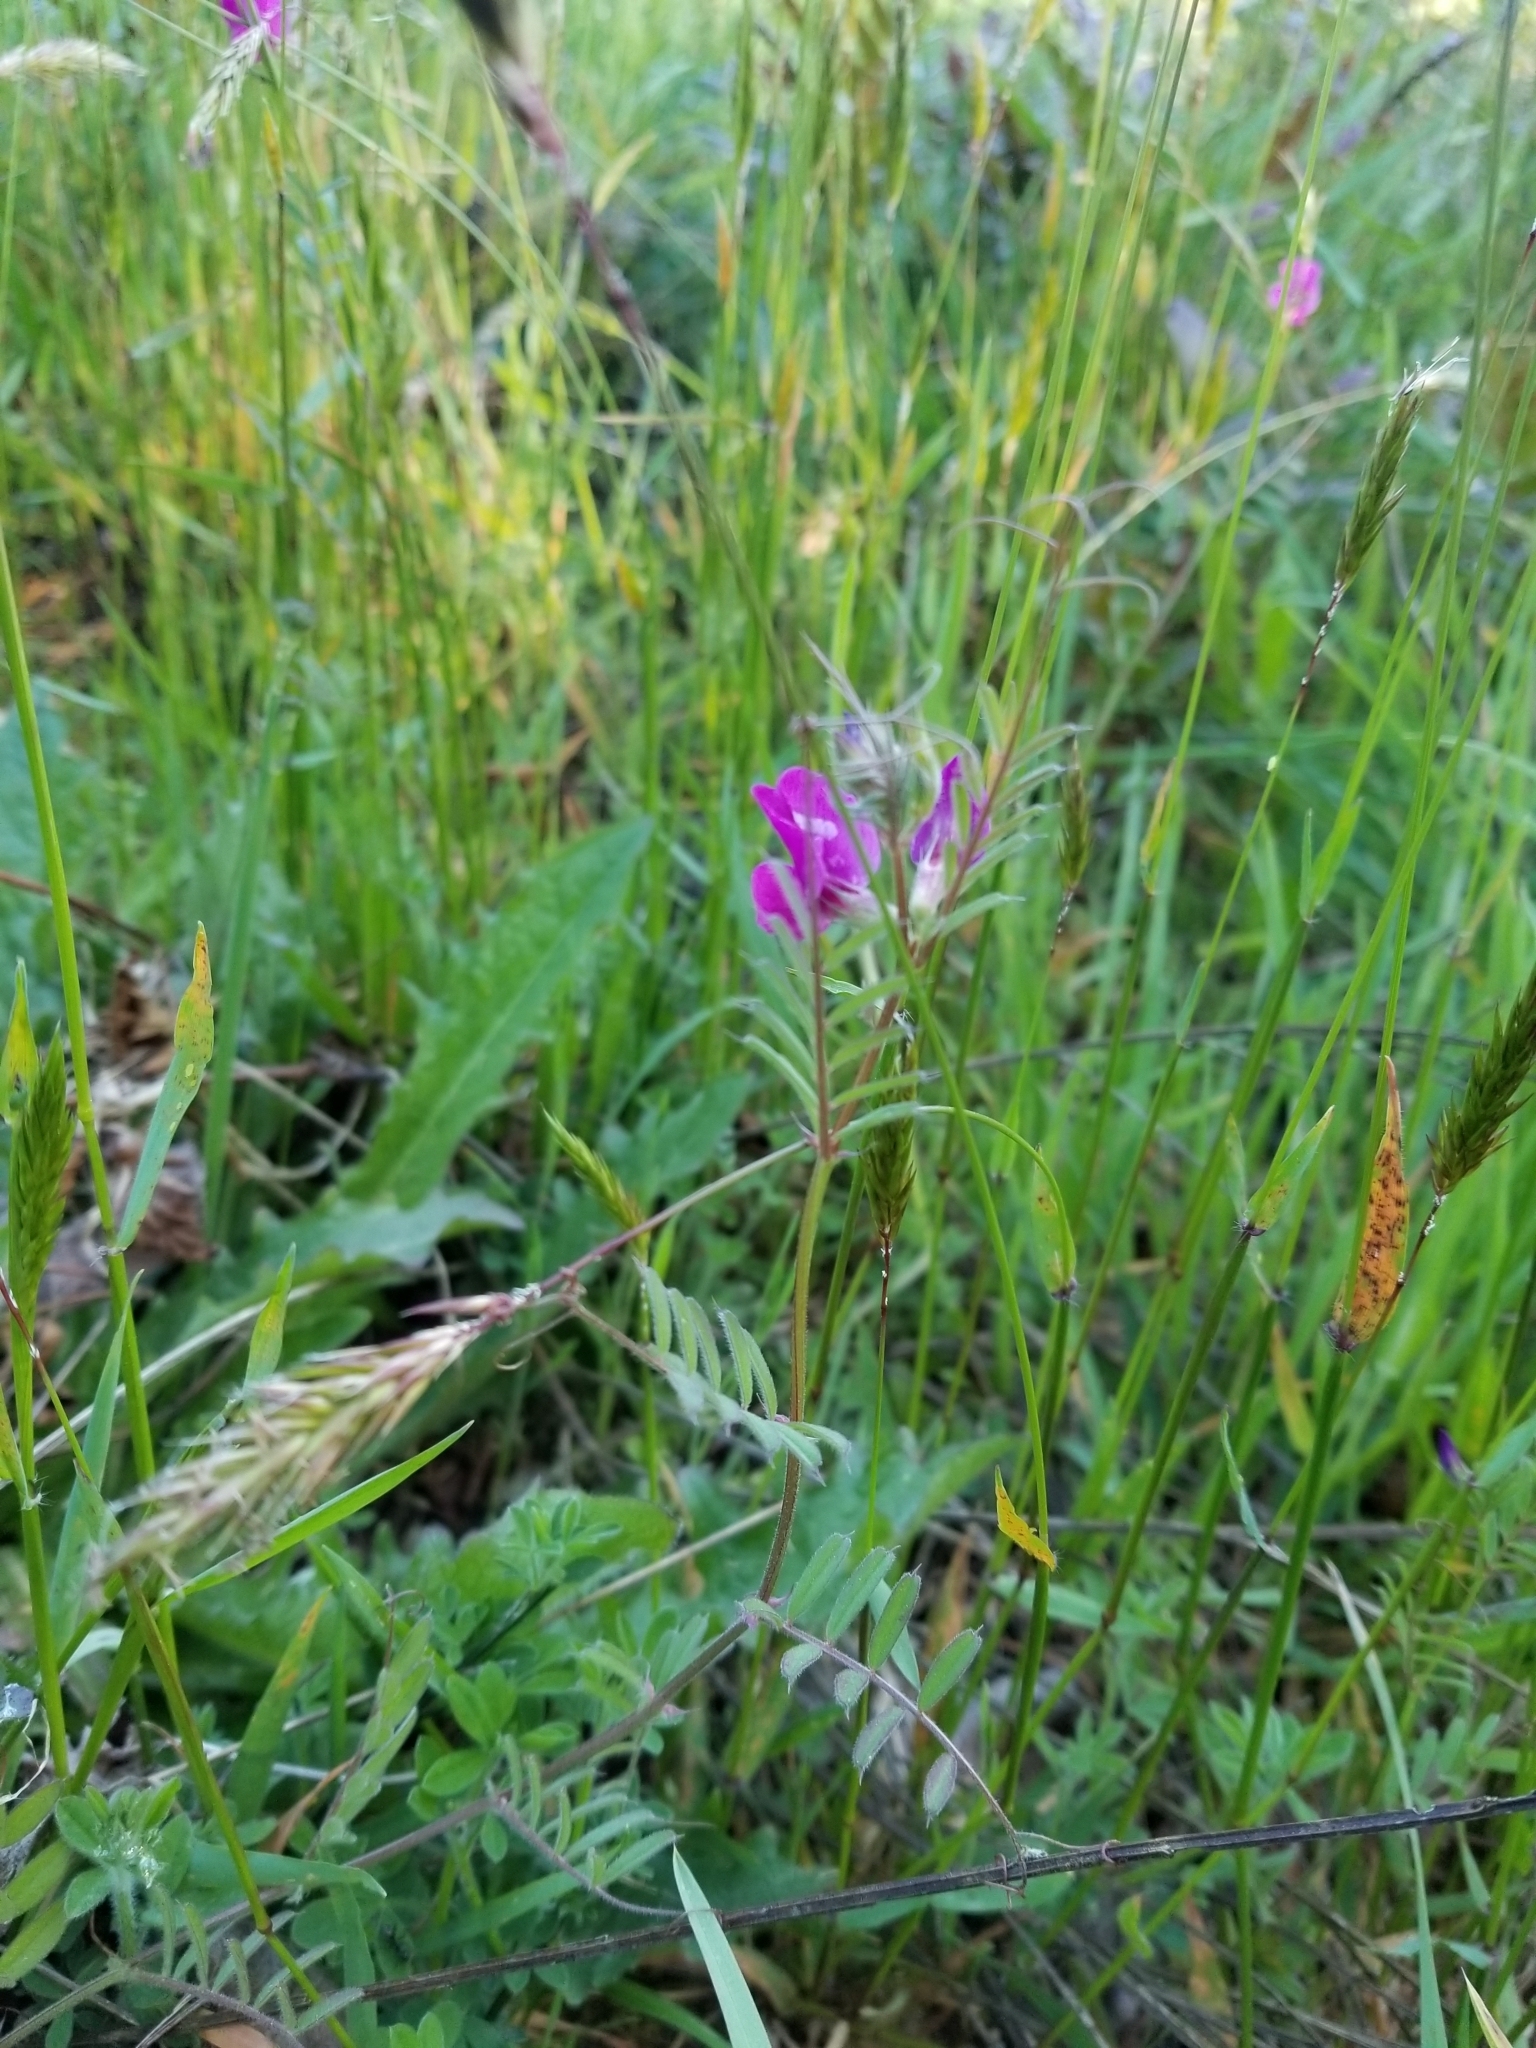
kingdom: Plantae
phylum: Tracheophyta
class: Magnoliopsida
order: Fabales
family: Fabaceae
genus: Vicia
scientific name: Vicia sativa
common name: Garden vetch
